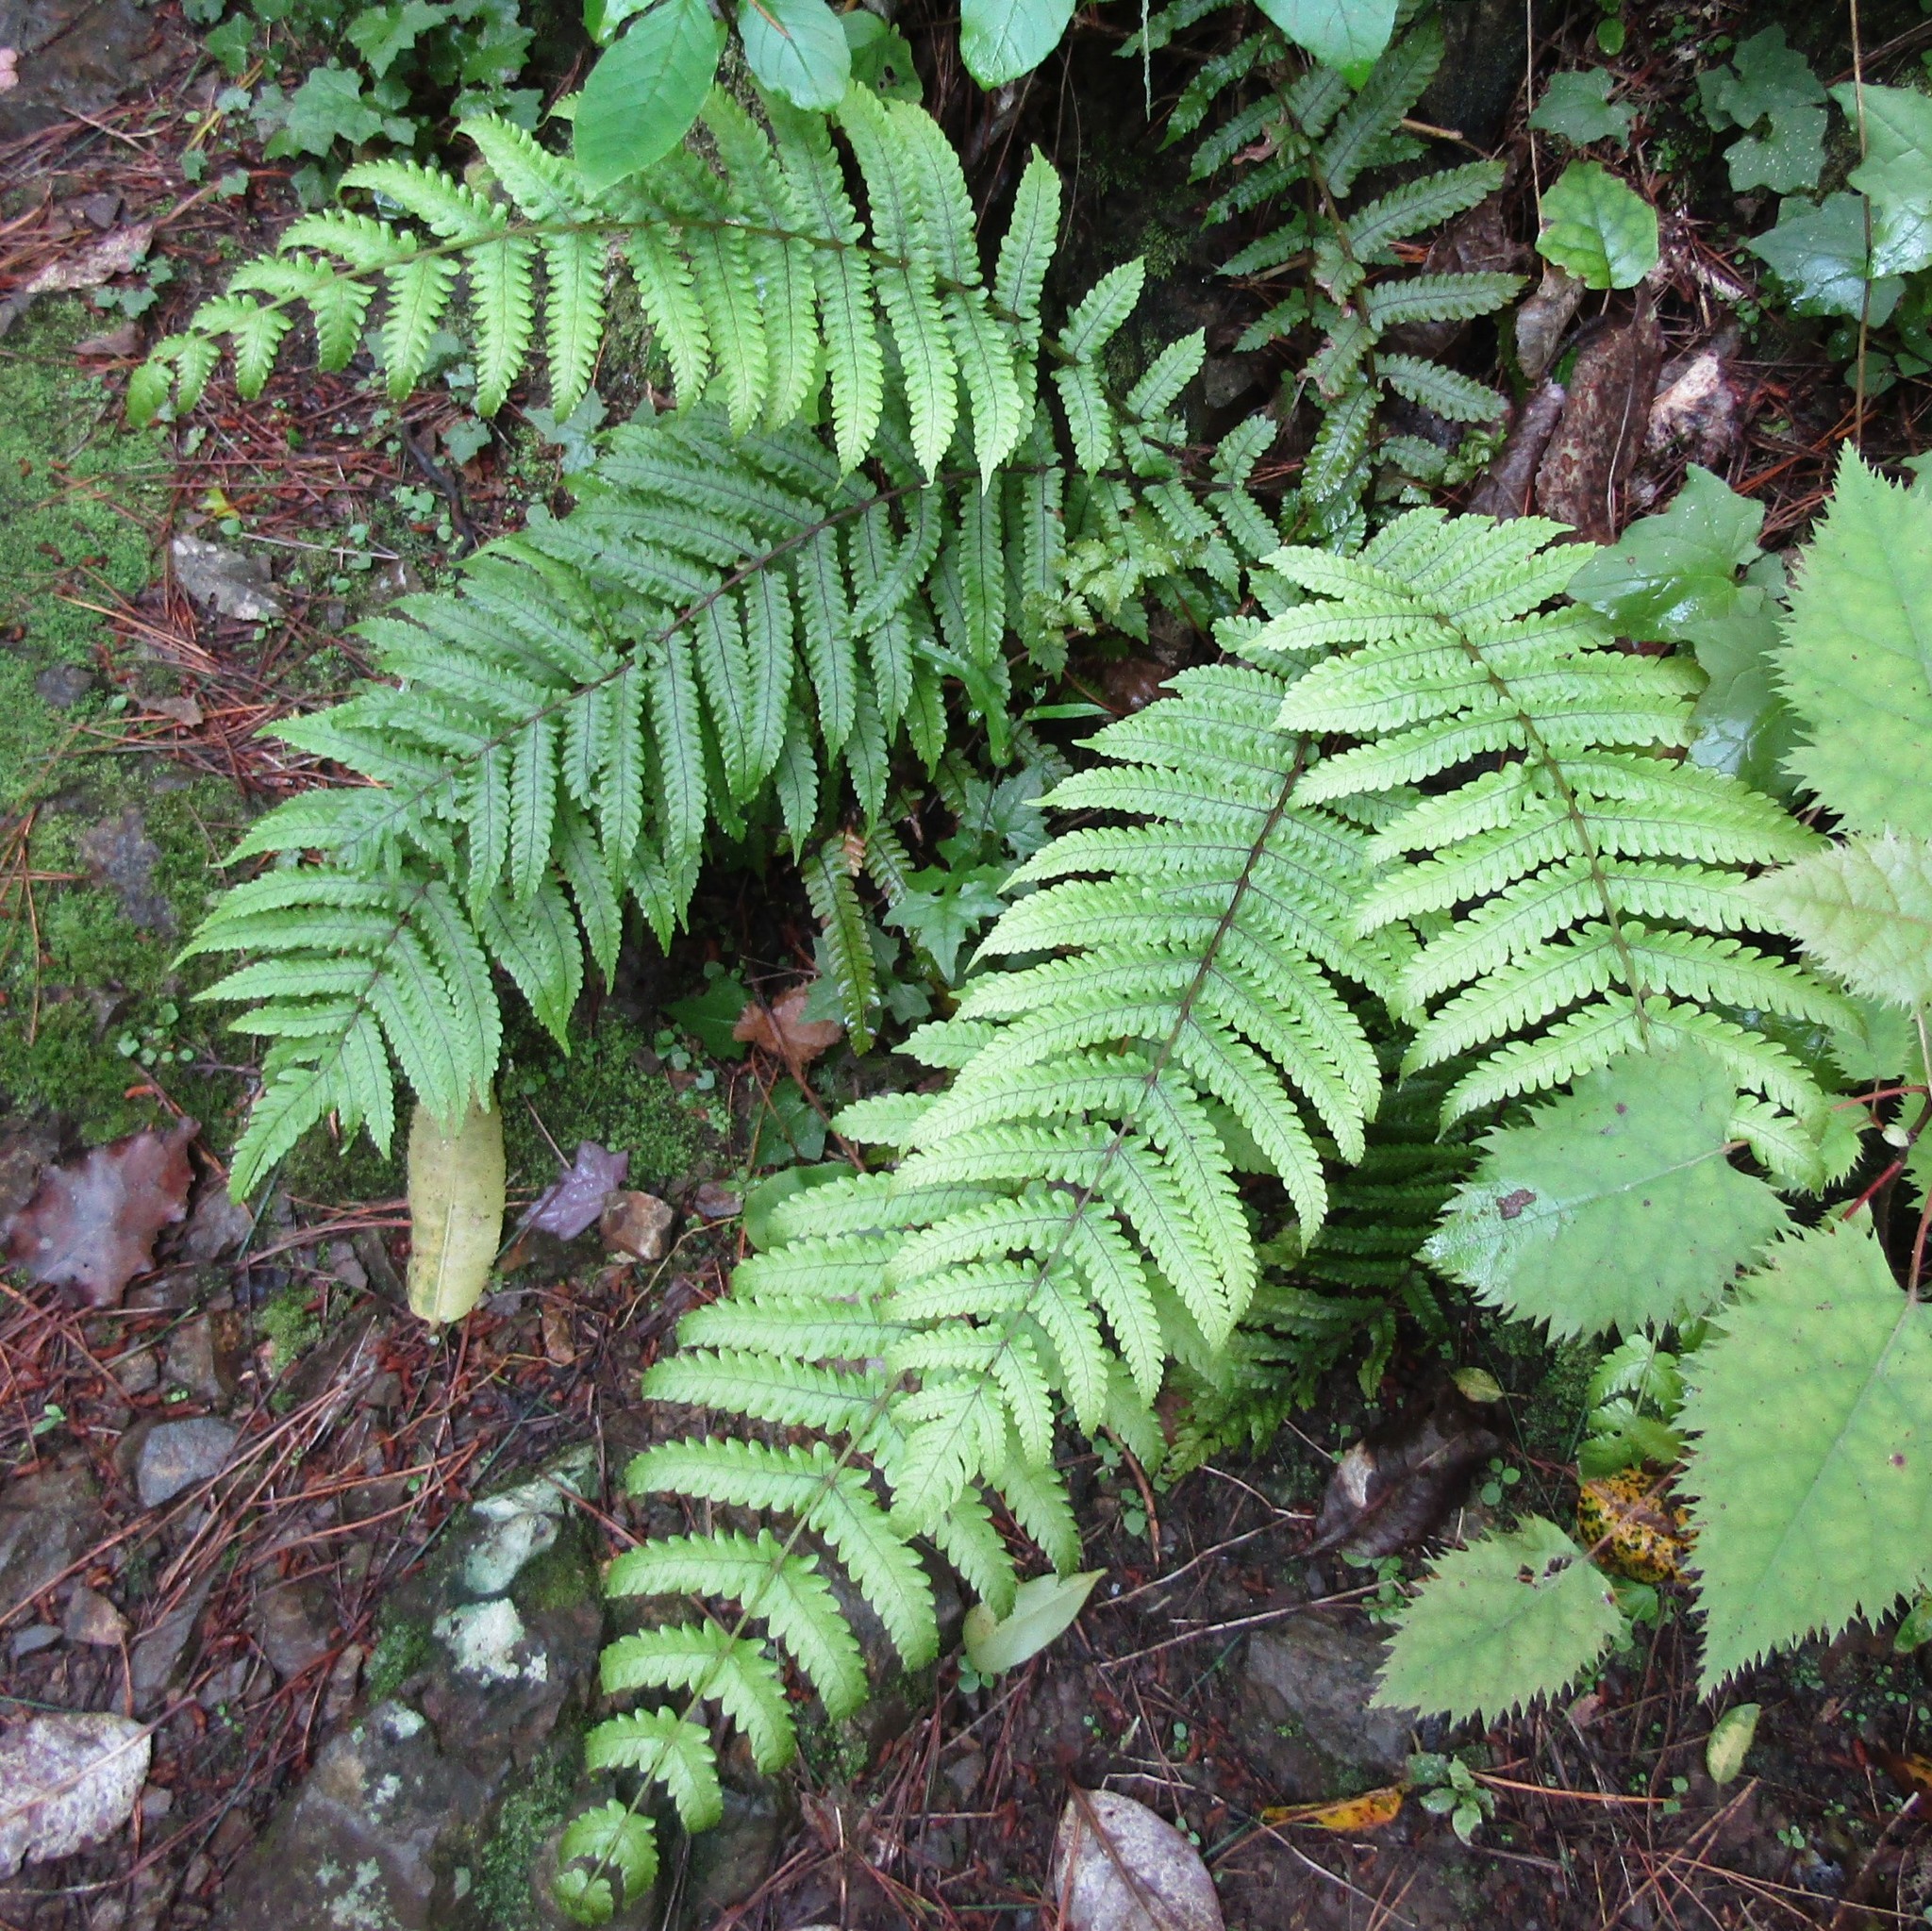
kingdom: Plantae
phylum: Tracheophyta
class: Polypodiopsida
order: Polypodiales
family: Thelypteridaceae
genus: Pakau
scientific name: Pakau pennigera
